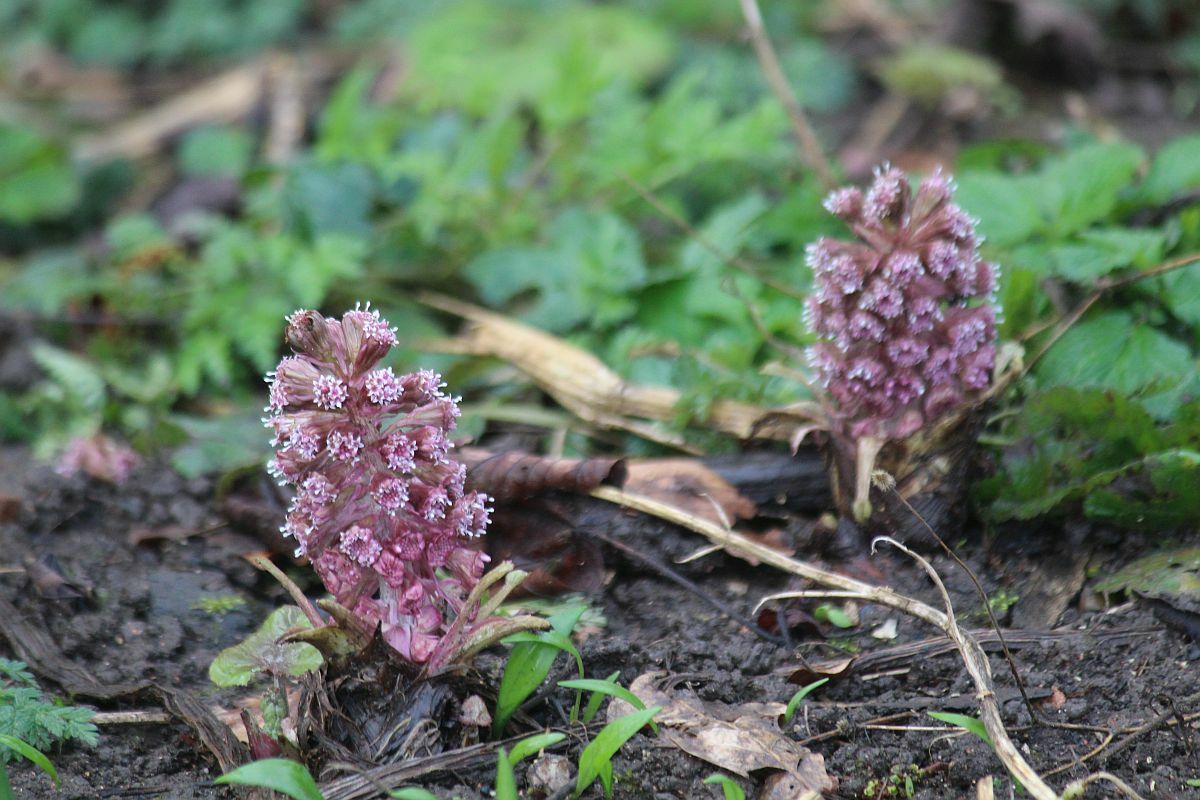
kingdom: Plantae
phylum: Tracheophyta
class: Magnoliopsida
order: Asterales
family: Asteraceae
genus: Petasites
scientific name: Petasites hybridus
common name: Butterbur
